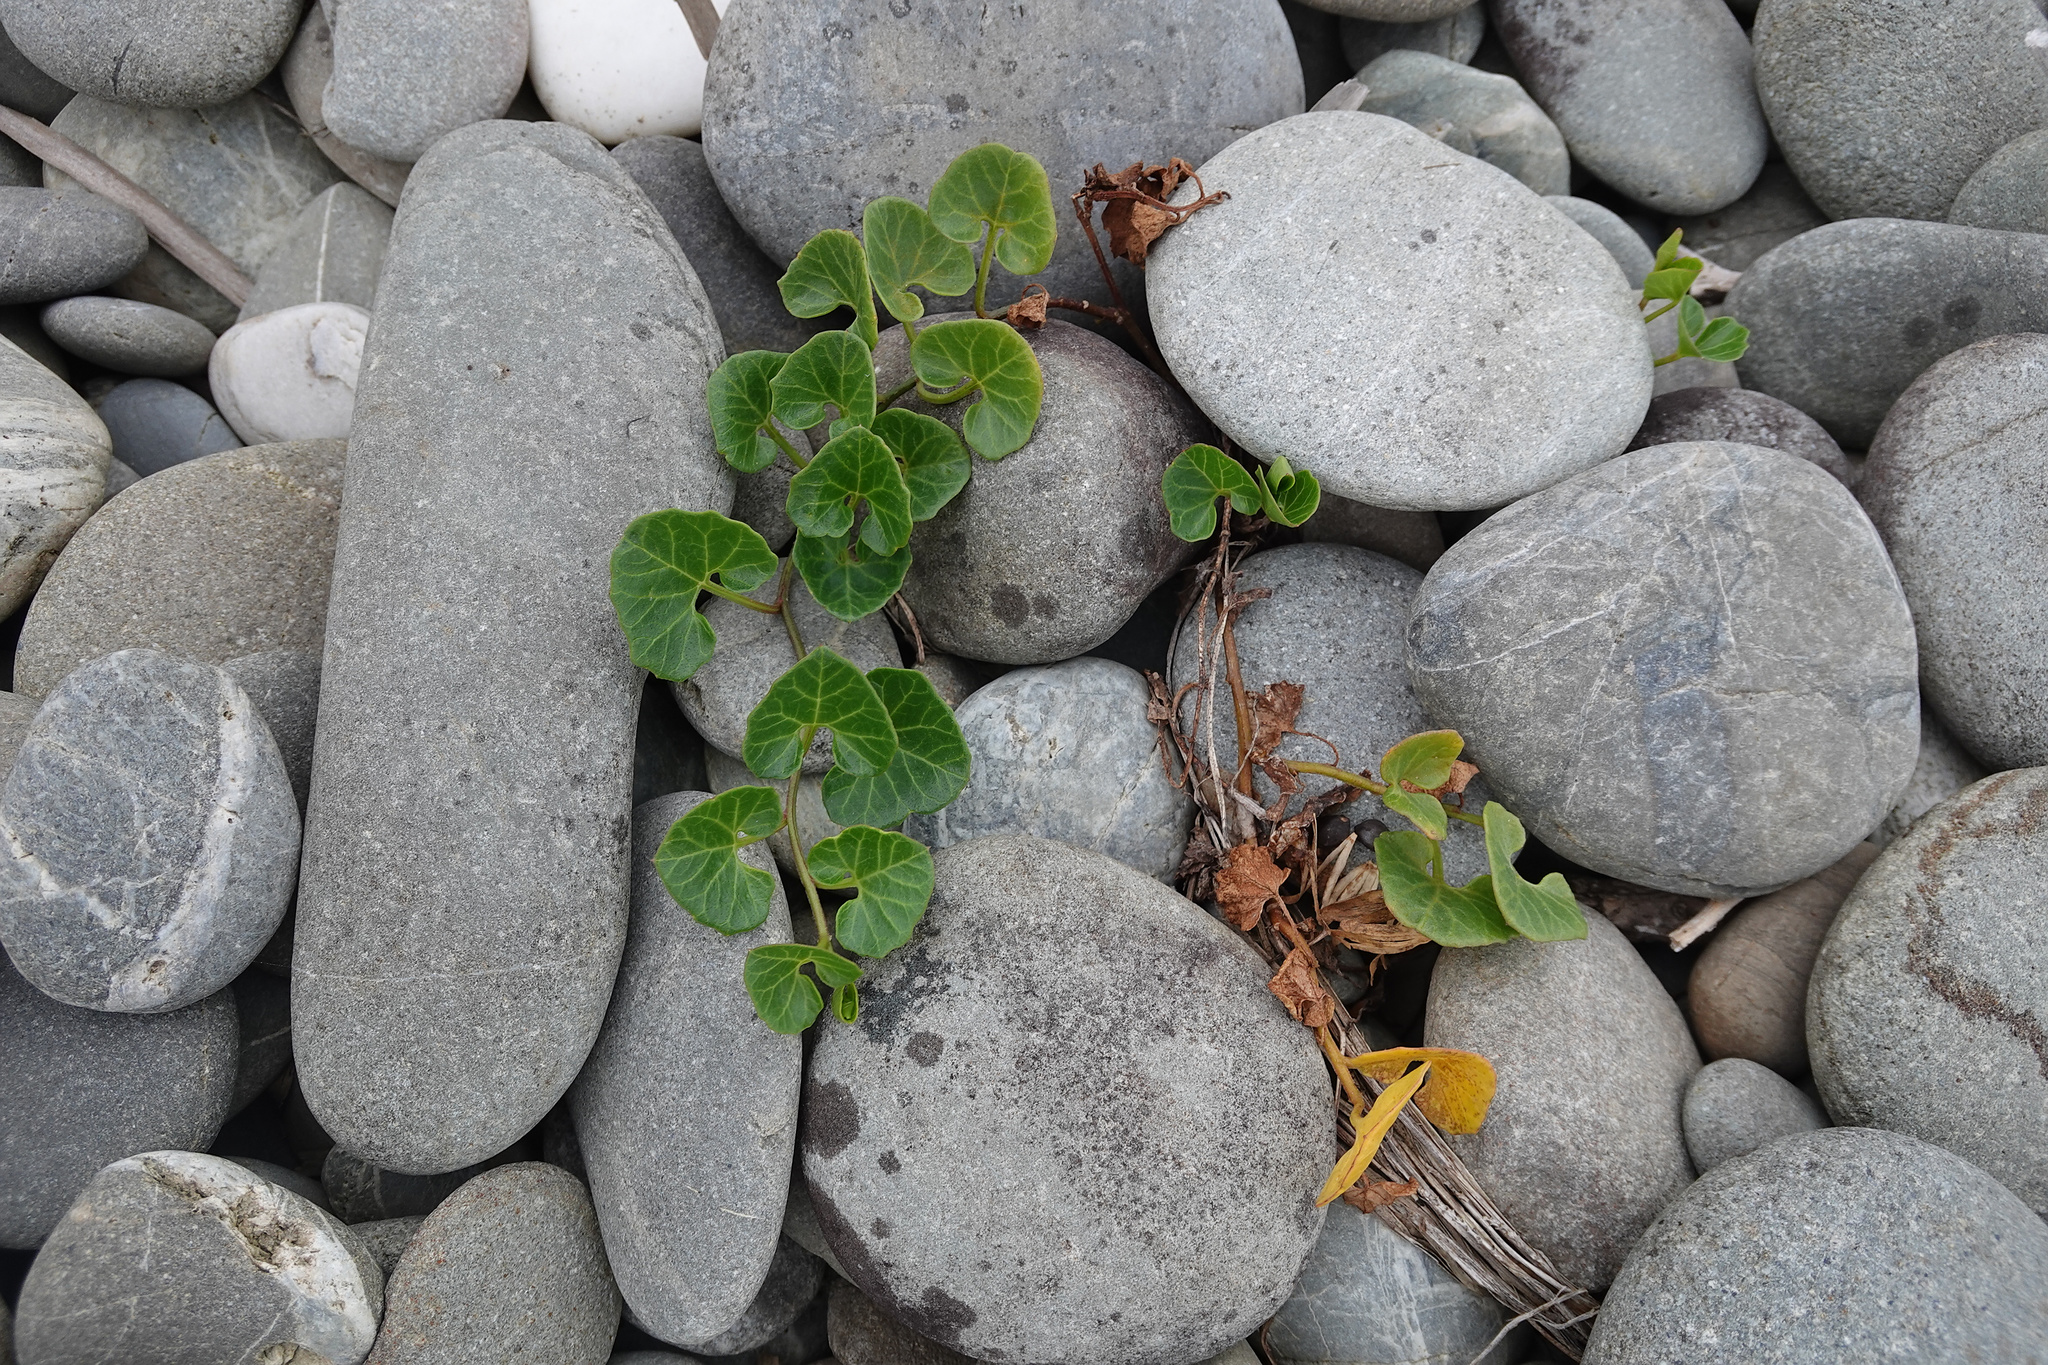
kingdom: Plantae
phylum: Tracheophyta
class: Magnoliopsida
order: Solanales
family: Convolvulaceae
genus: Calystegia
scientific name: Calystegia soldanella
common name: Sea bindweed
